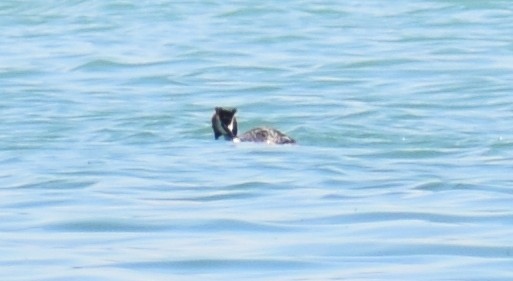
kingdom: Animalia
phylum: Chordata
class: Aves
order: Podicipediformes
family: Podicipedidae
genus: Podiceps
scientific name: Podiceps cristatus
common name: Great crested grebe
